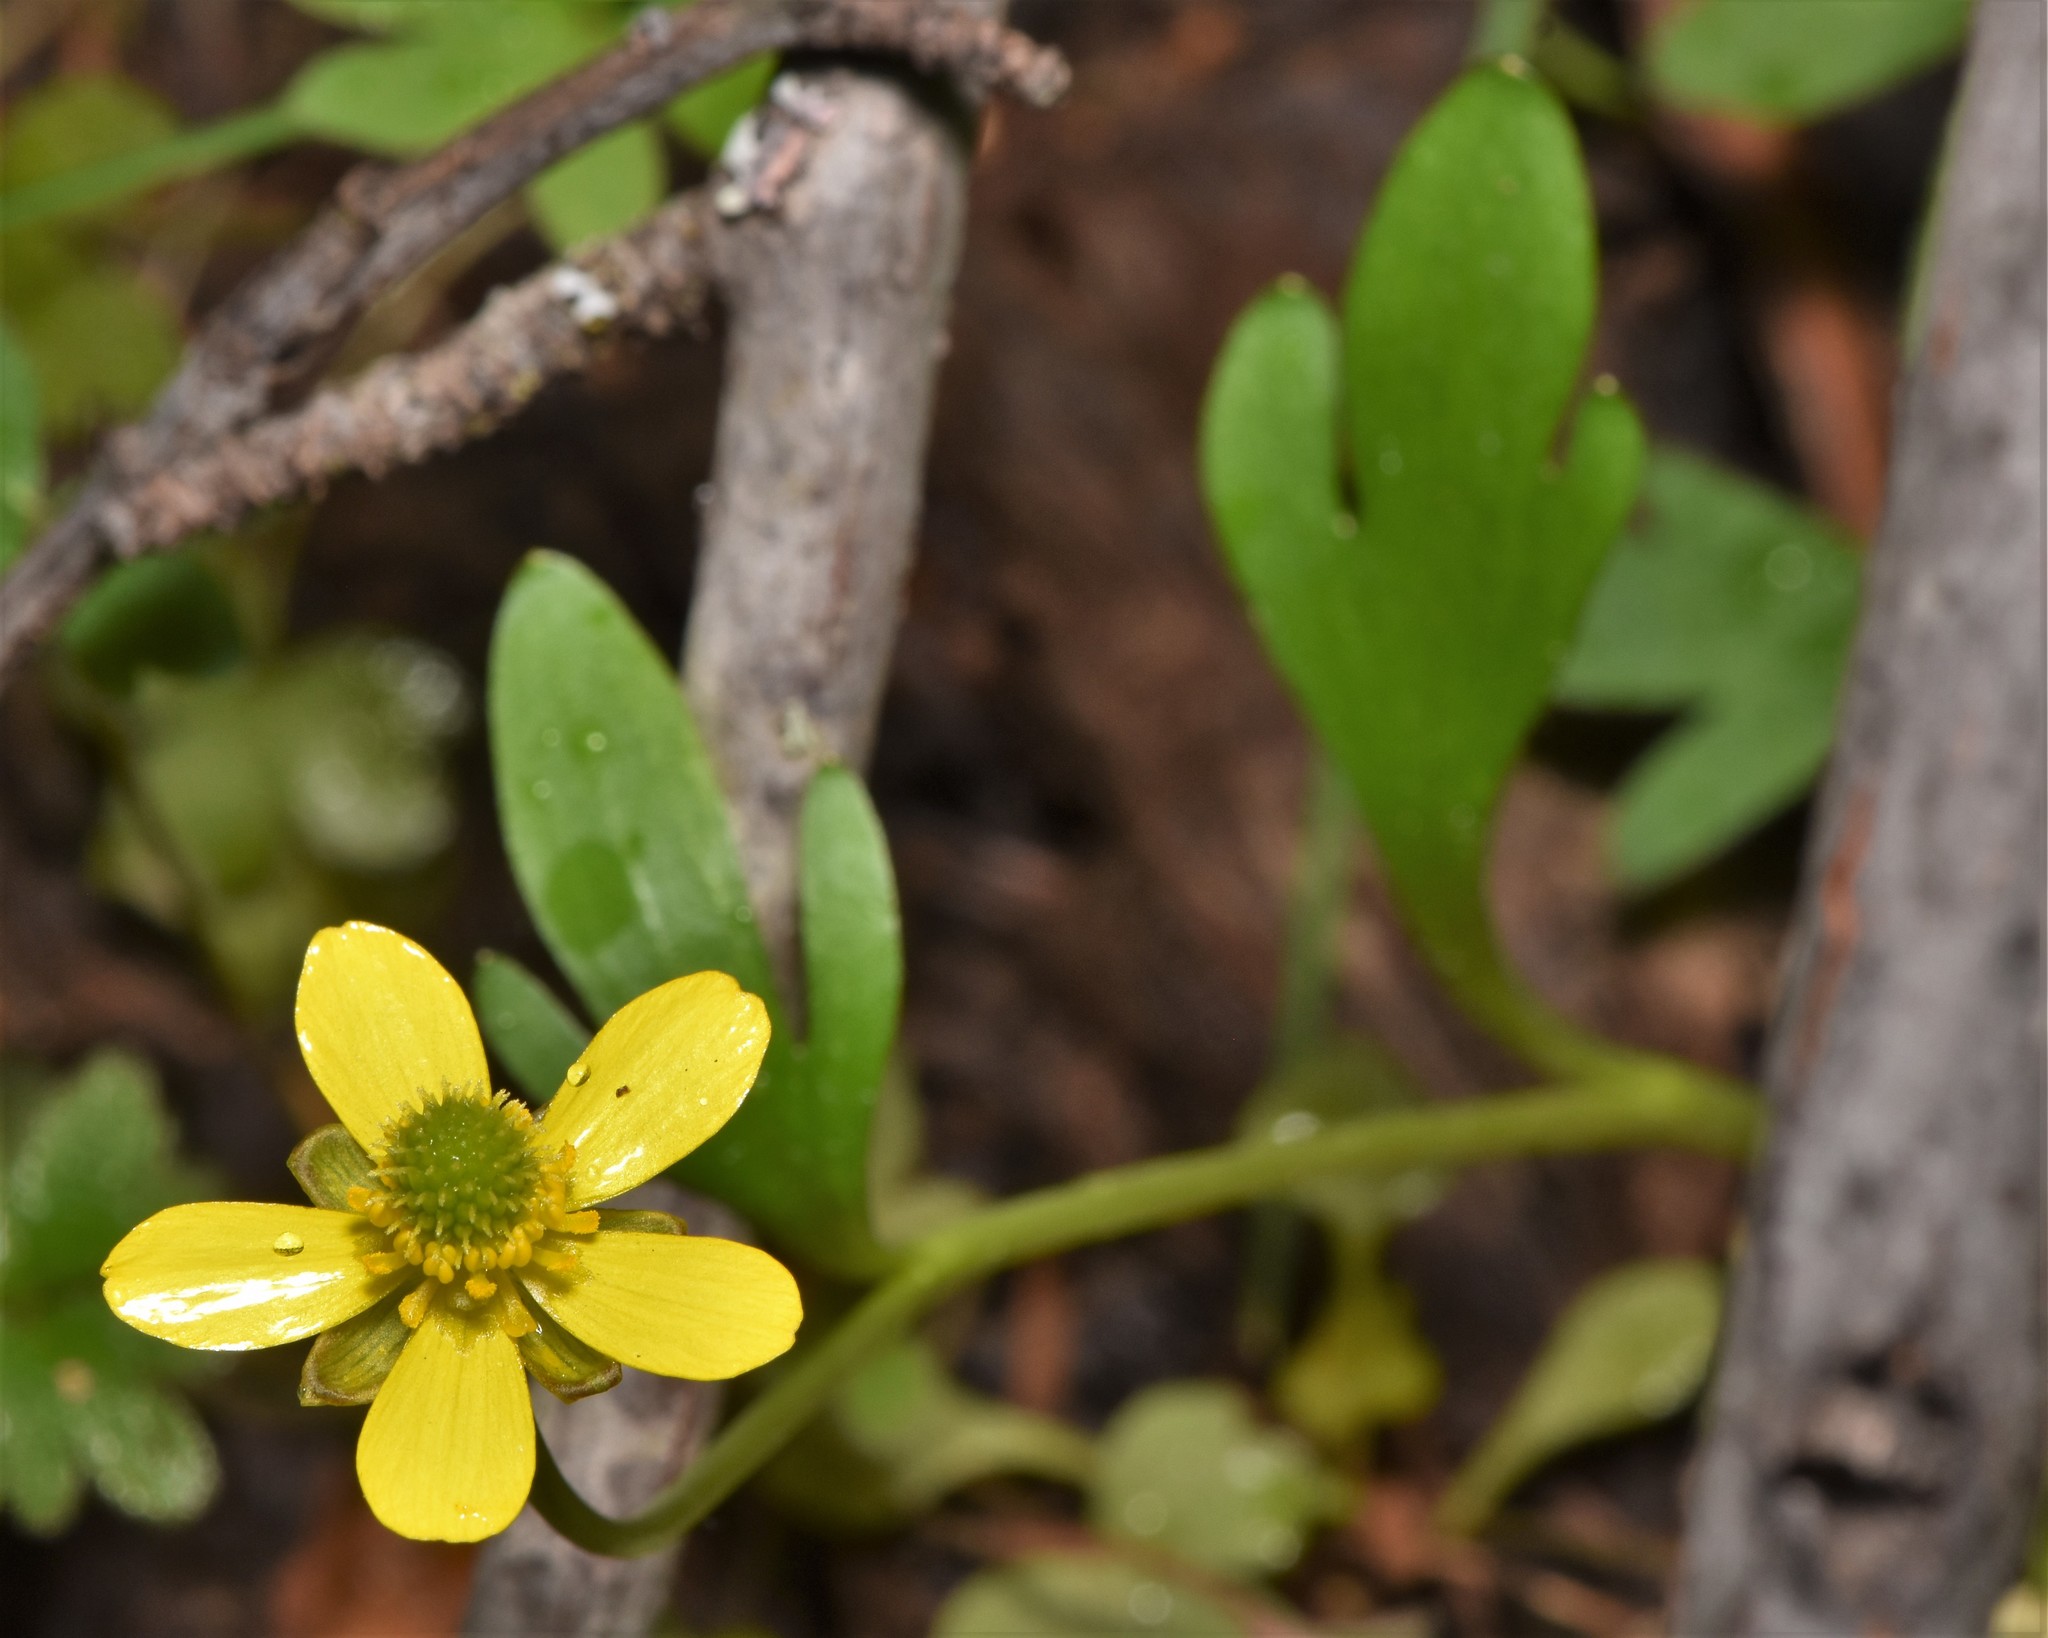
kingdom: Plantae
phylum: Tracheophyta
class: Magnoliopsida
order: Ranunculales
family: Ranunculaceae
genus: Ranunculus
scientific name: Ranunculus glaberrimus
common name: Sagebrush buttercup
